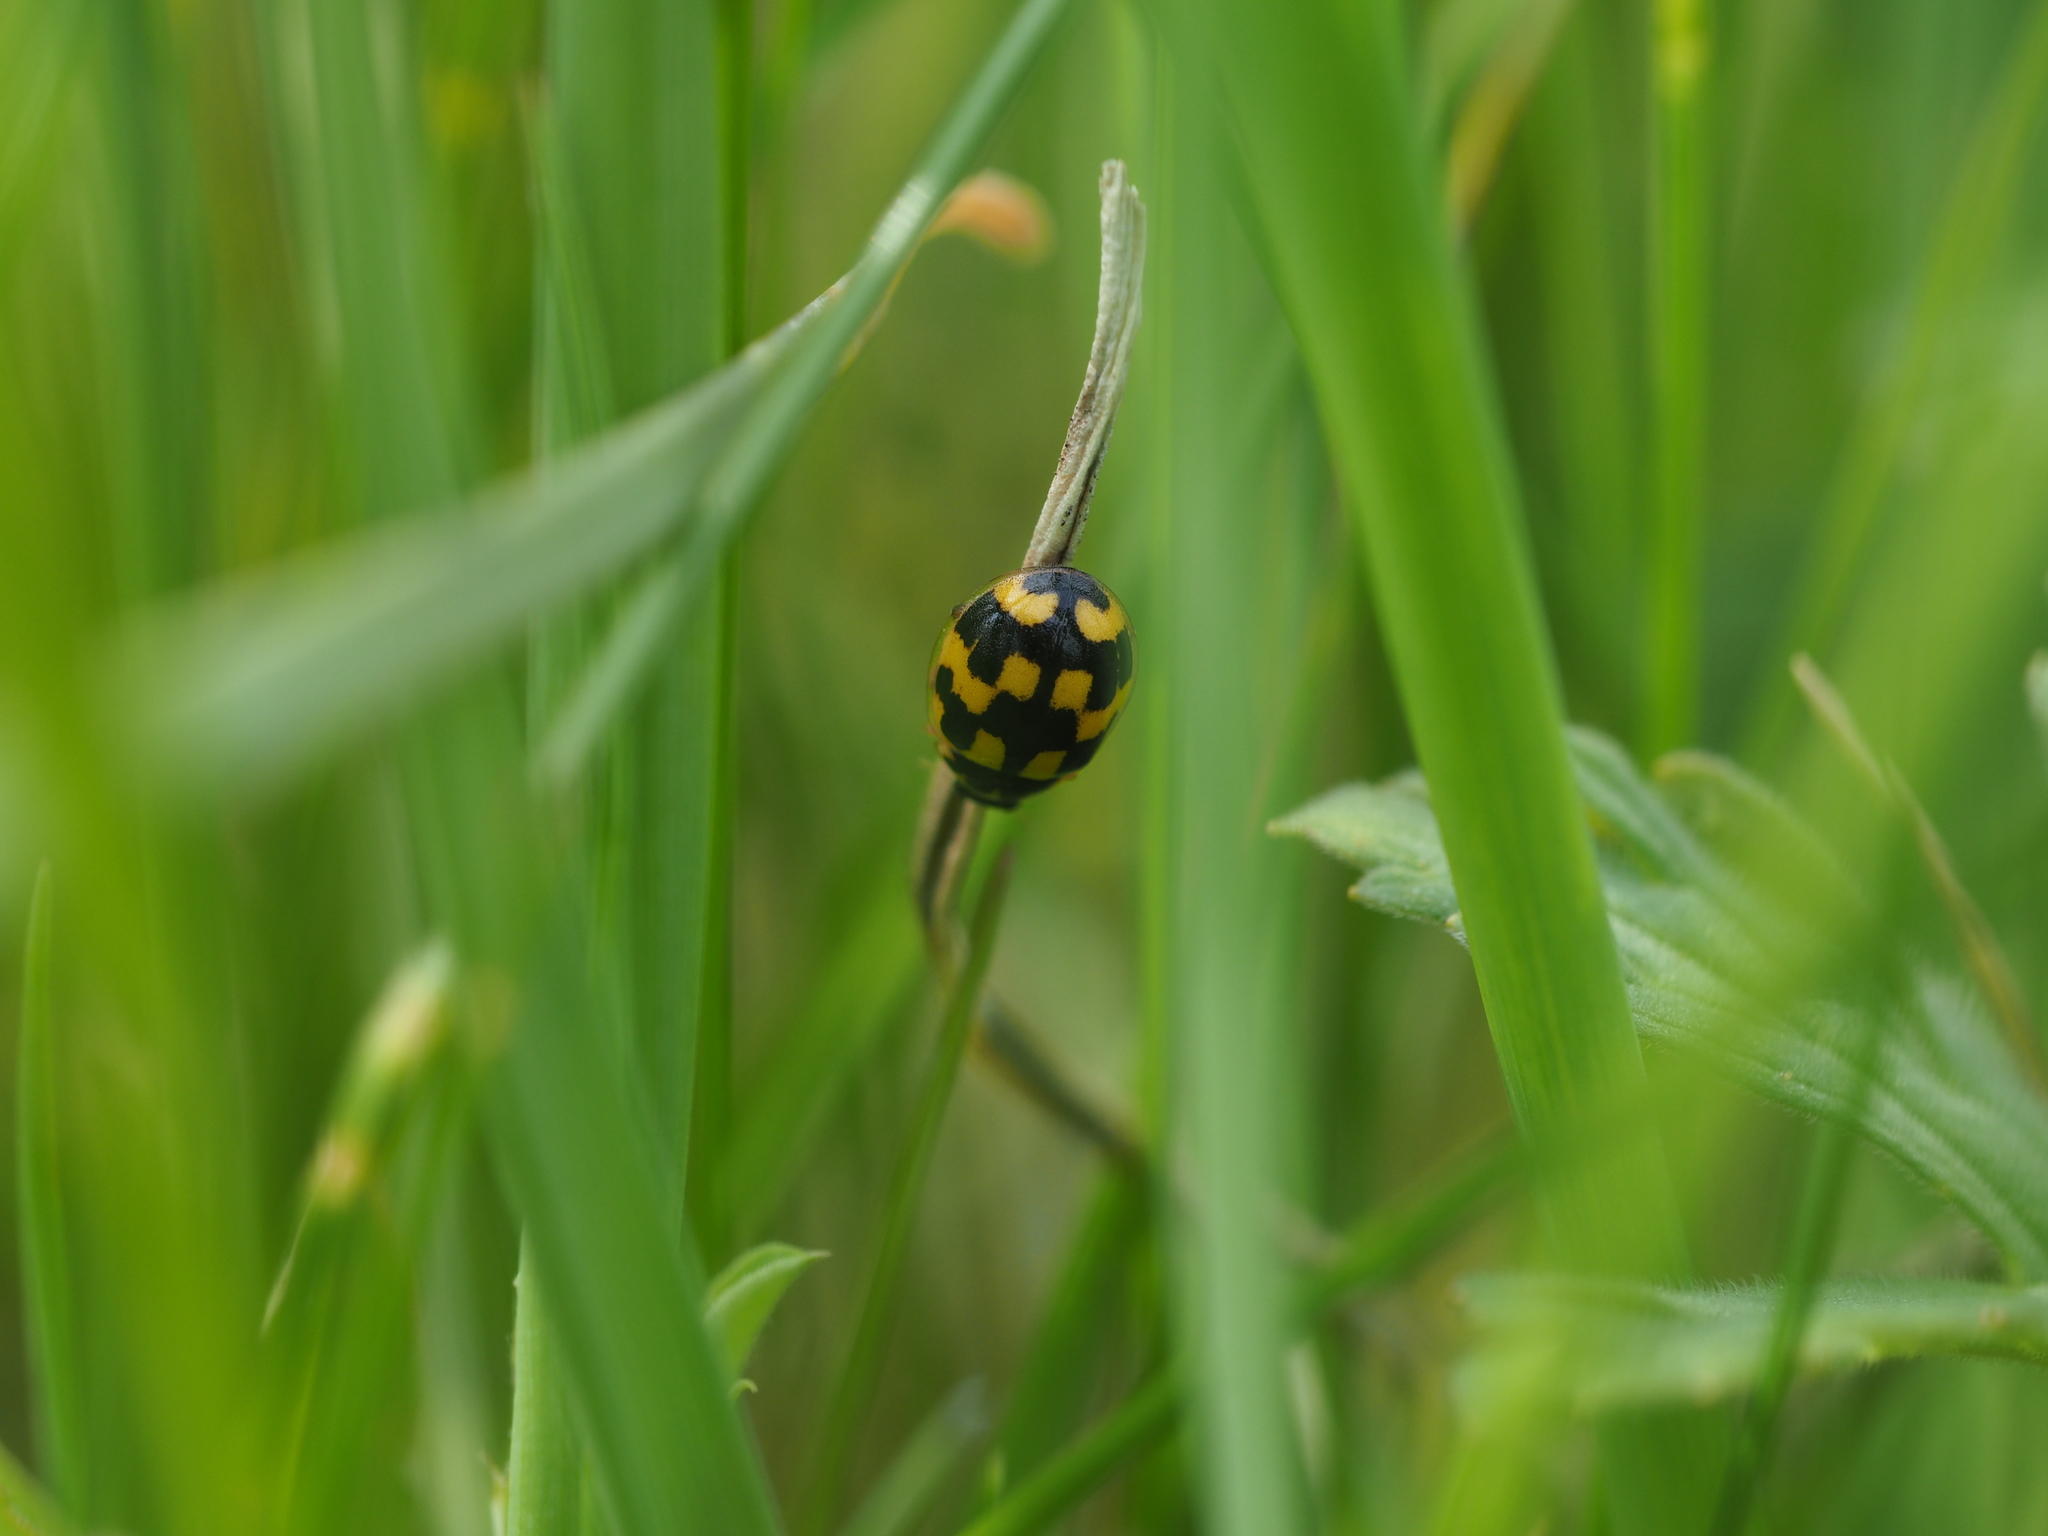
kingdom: Animalia
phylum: Arthropoda
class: Insecta
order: Coleoptera
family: Coccinellidae
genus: Propylaea
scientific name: Propylaea quatuordecimpunctata
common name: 14-spotted ladybird beetle
